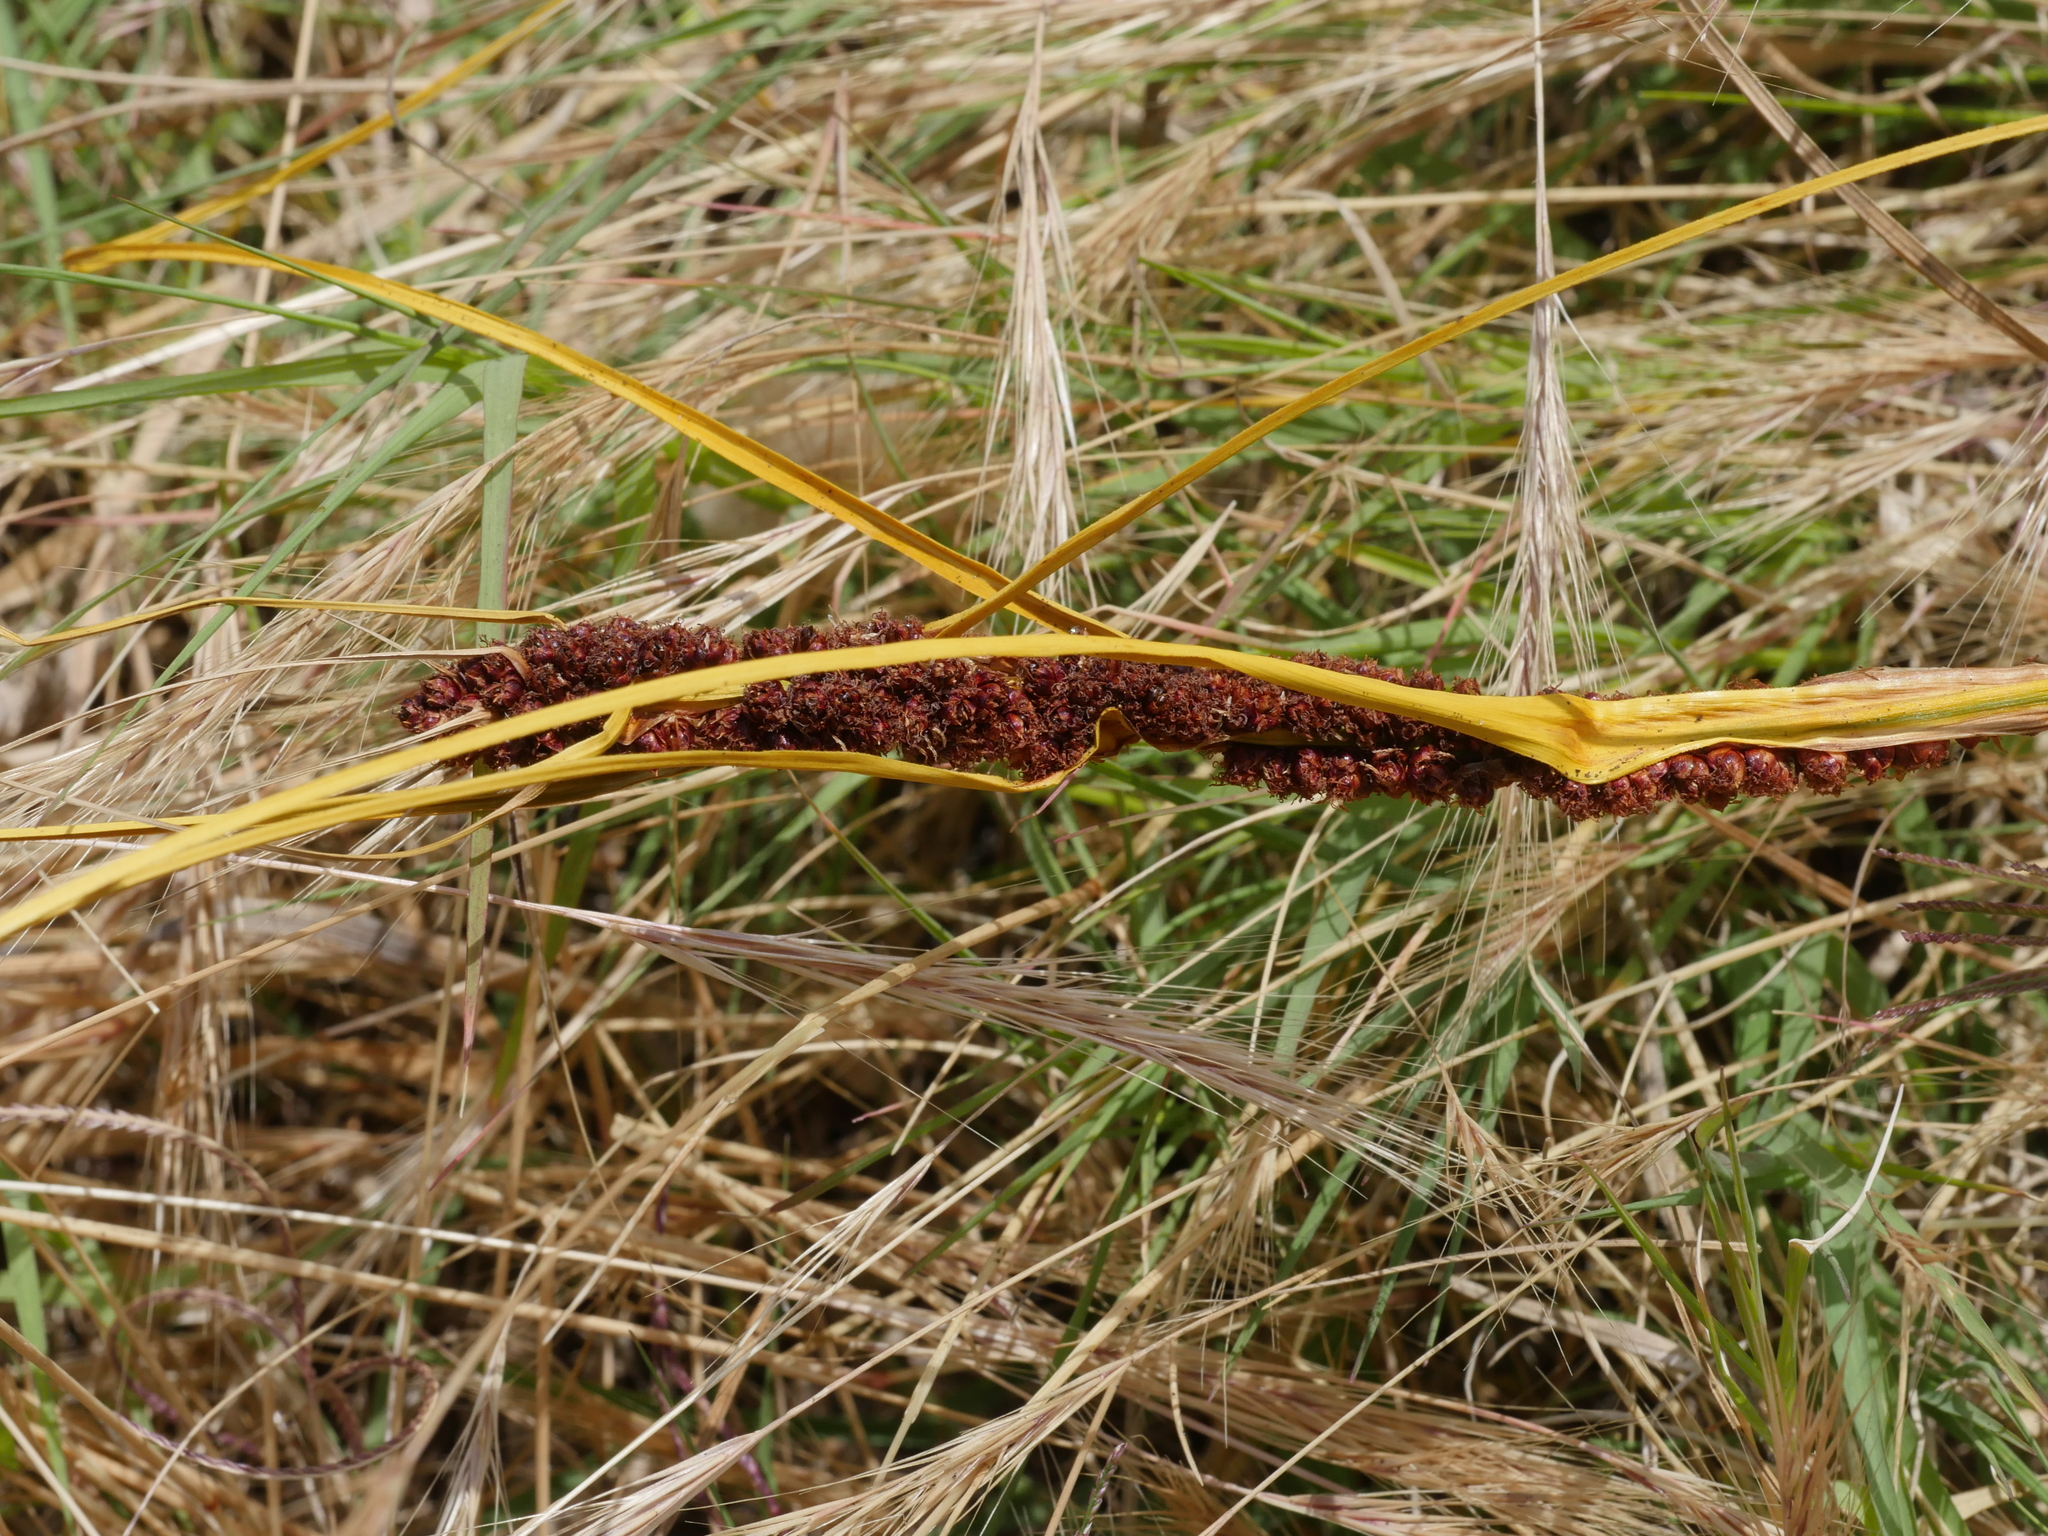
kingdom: Plantae
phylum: Tracheophyta
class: Liliopsida
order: Poales
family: Cyperaceae
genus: Ficinia
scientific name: Ficinia spiralis
